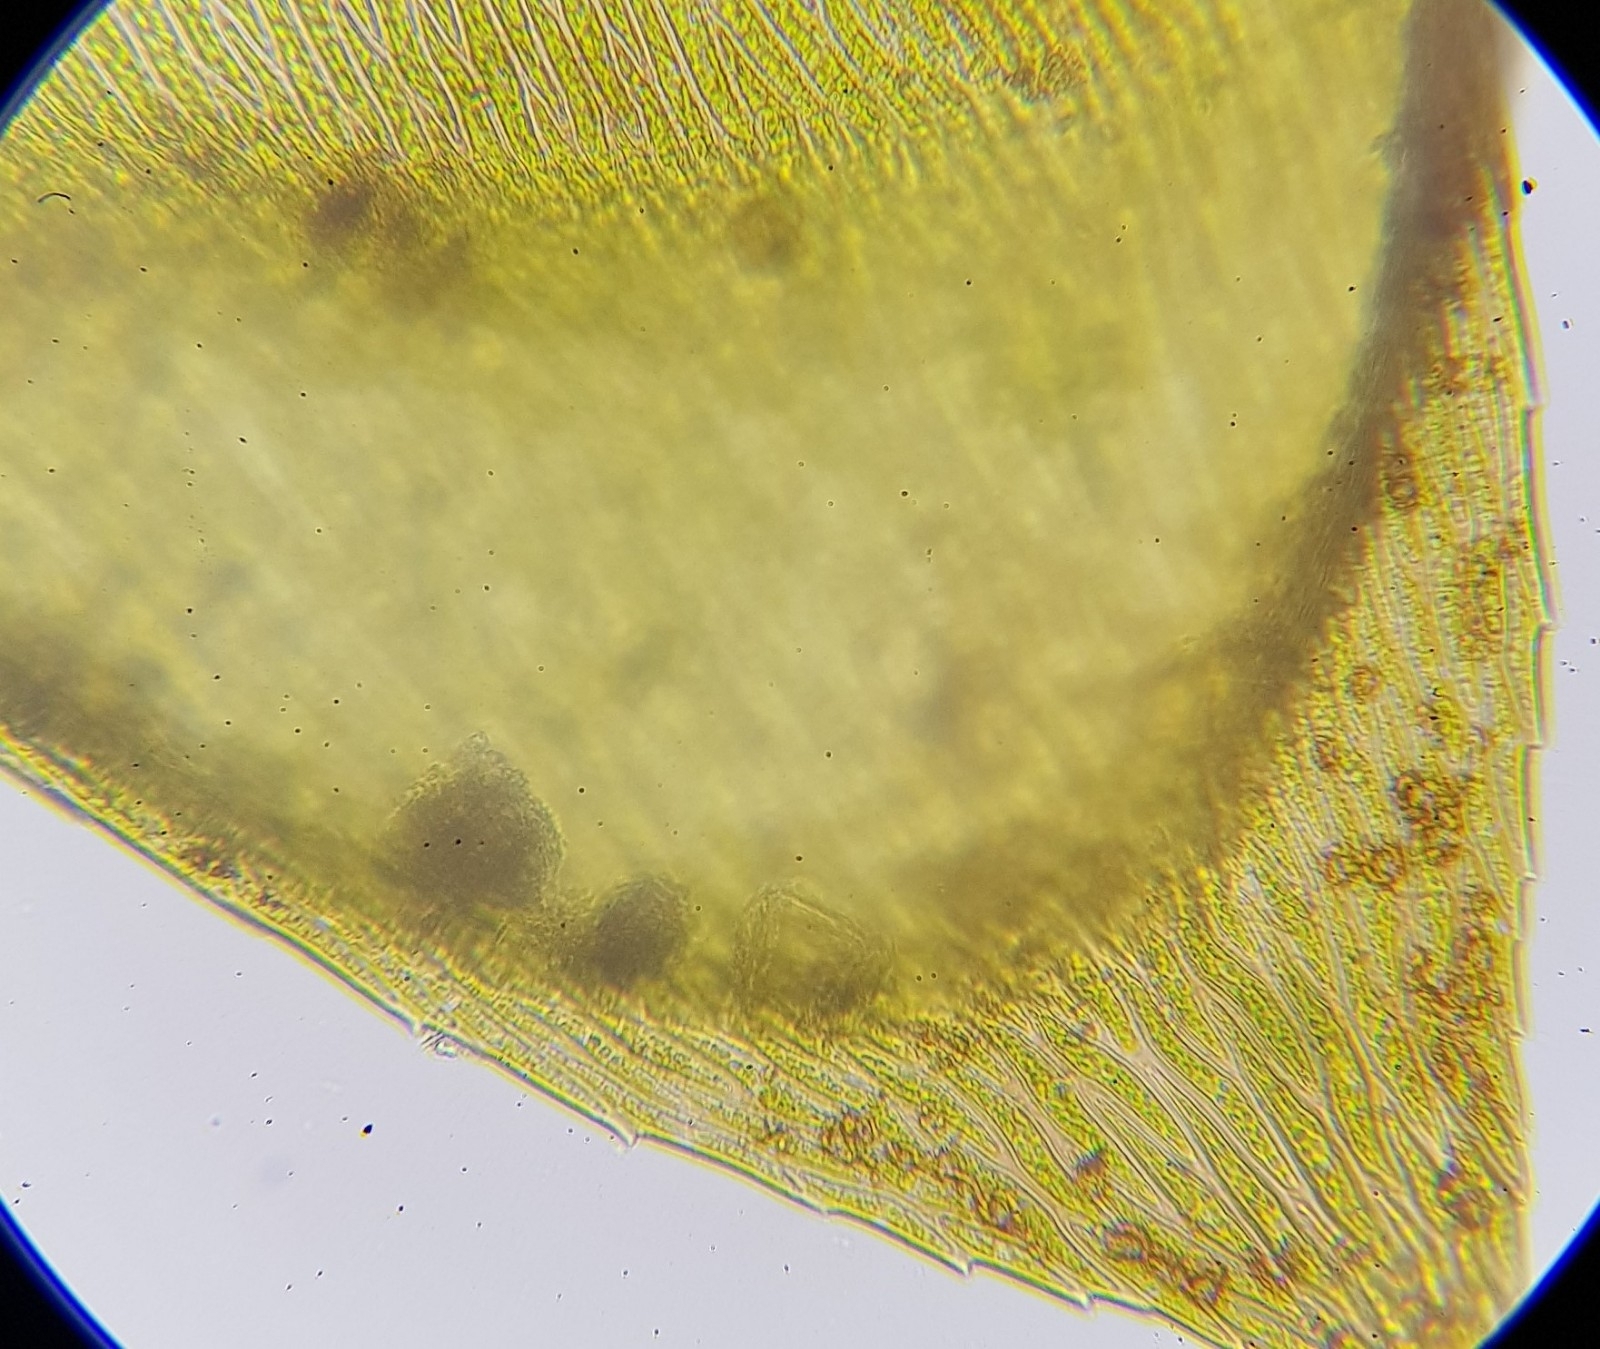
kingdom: Plantae
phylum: Bryophyta
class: Bryopsida
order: Hypnales
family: Brachytheciaceae
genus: Brachythecium
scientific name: Brachythecium rivulare
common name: River ragged moss
